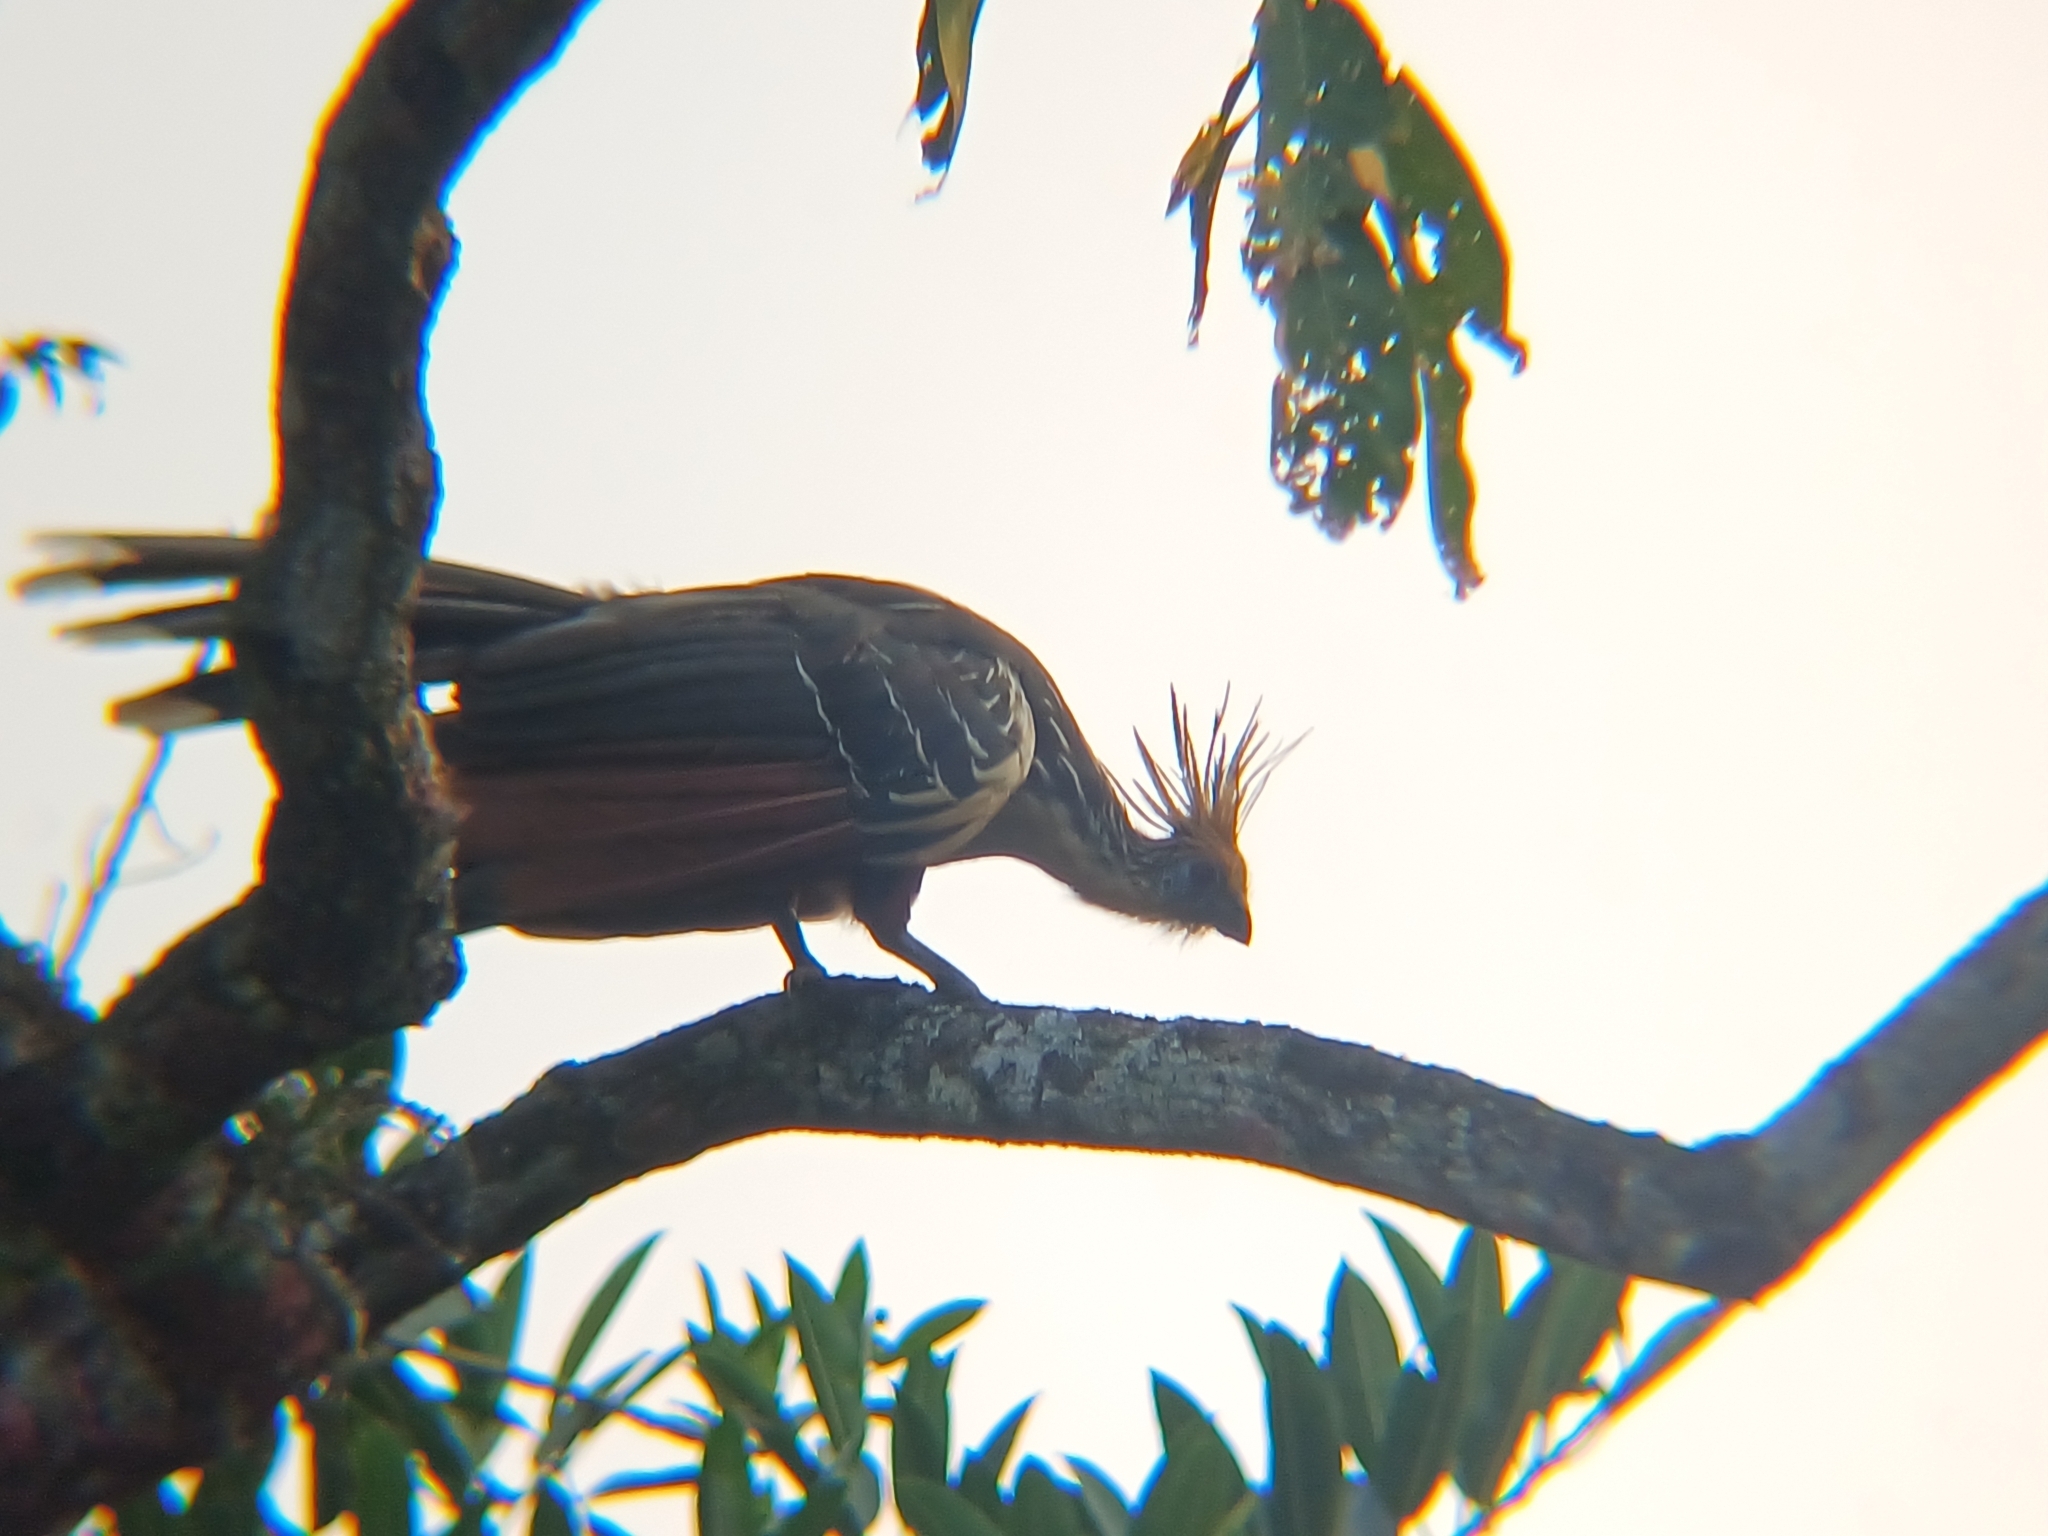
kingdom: Animalia
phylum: Chordata
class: Aves
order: Opisthocomiformes
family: Opisthocomidae
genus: Opisthocomus
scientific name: Opisthocomus hoazin
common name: Hoatzin
